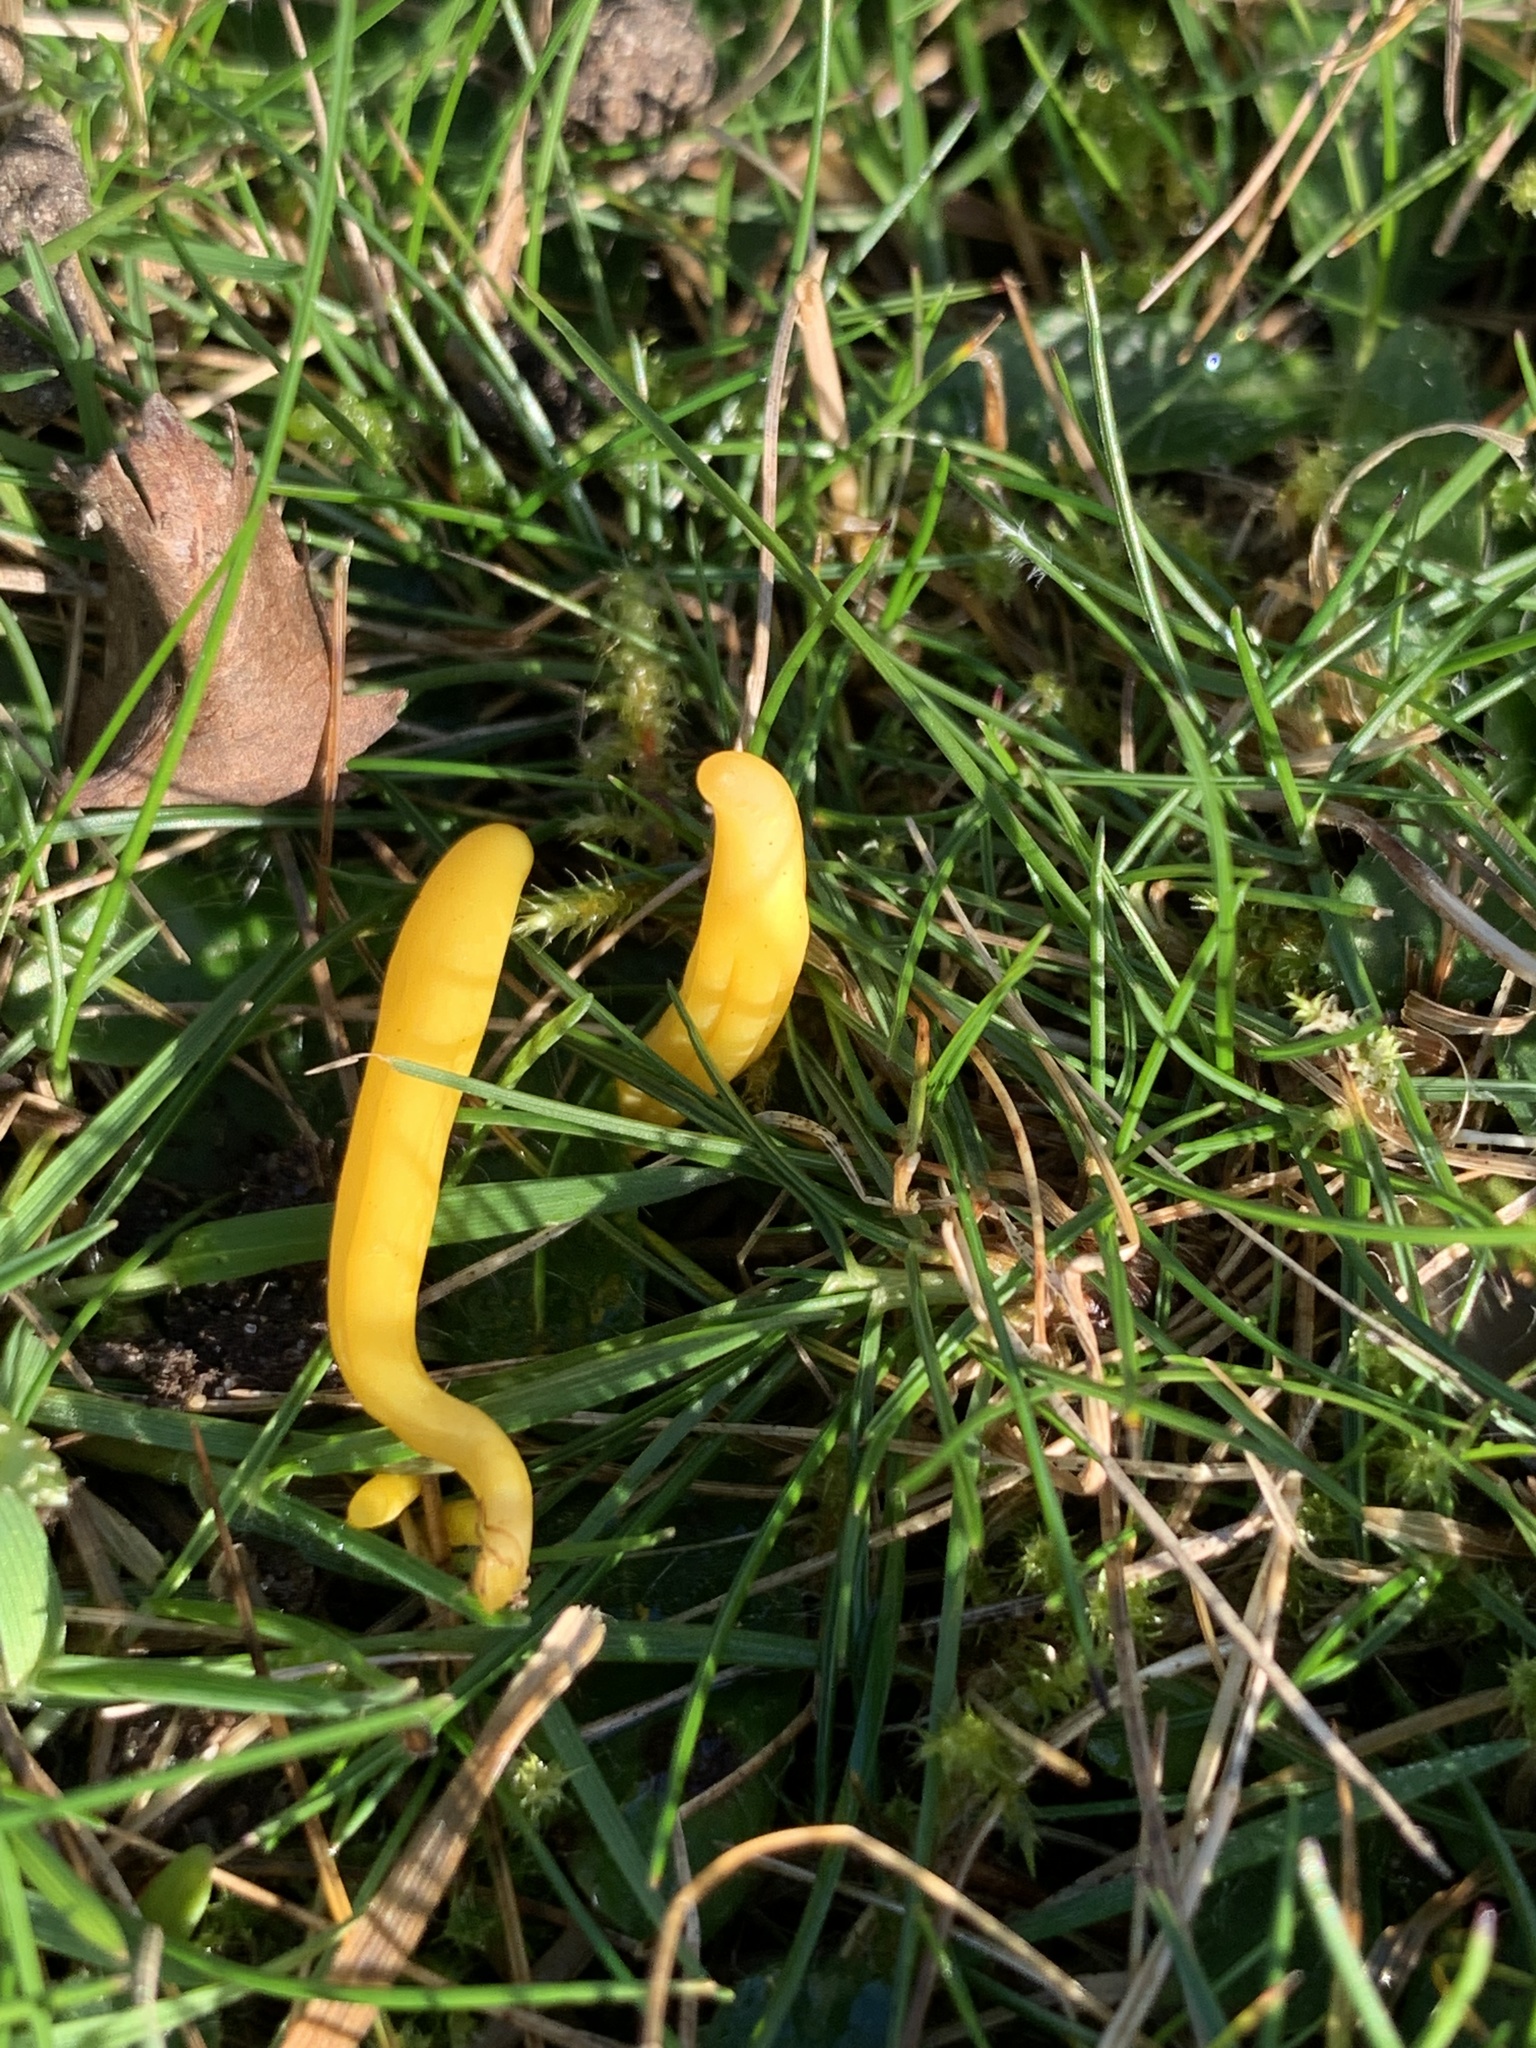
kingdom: Fungi
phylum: Basidiomycota
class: Agaricomycetes
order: Agaricales
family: Clavariaceae
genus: Clavulinopsis
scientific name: Clavulinopsis helvola
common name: Yellow club
